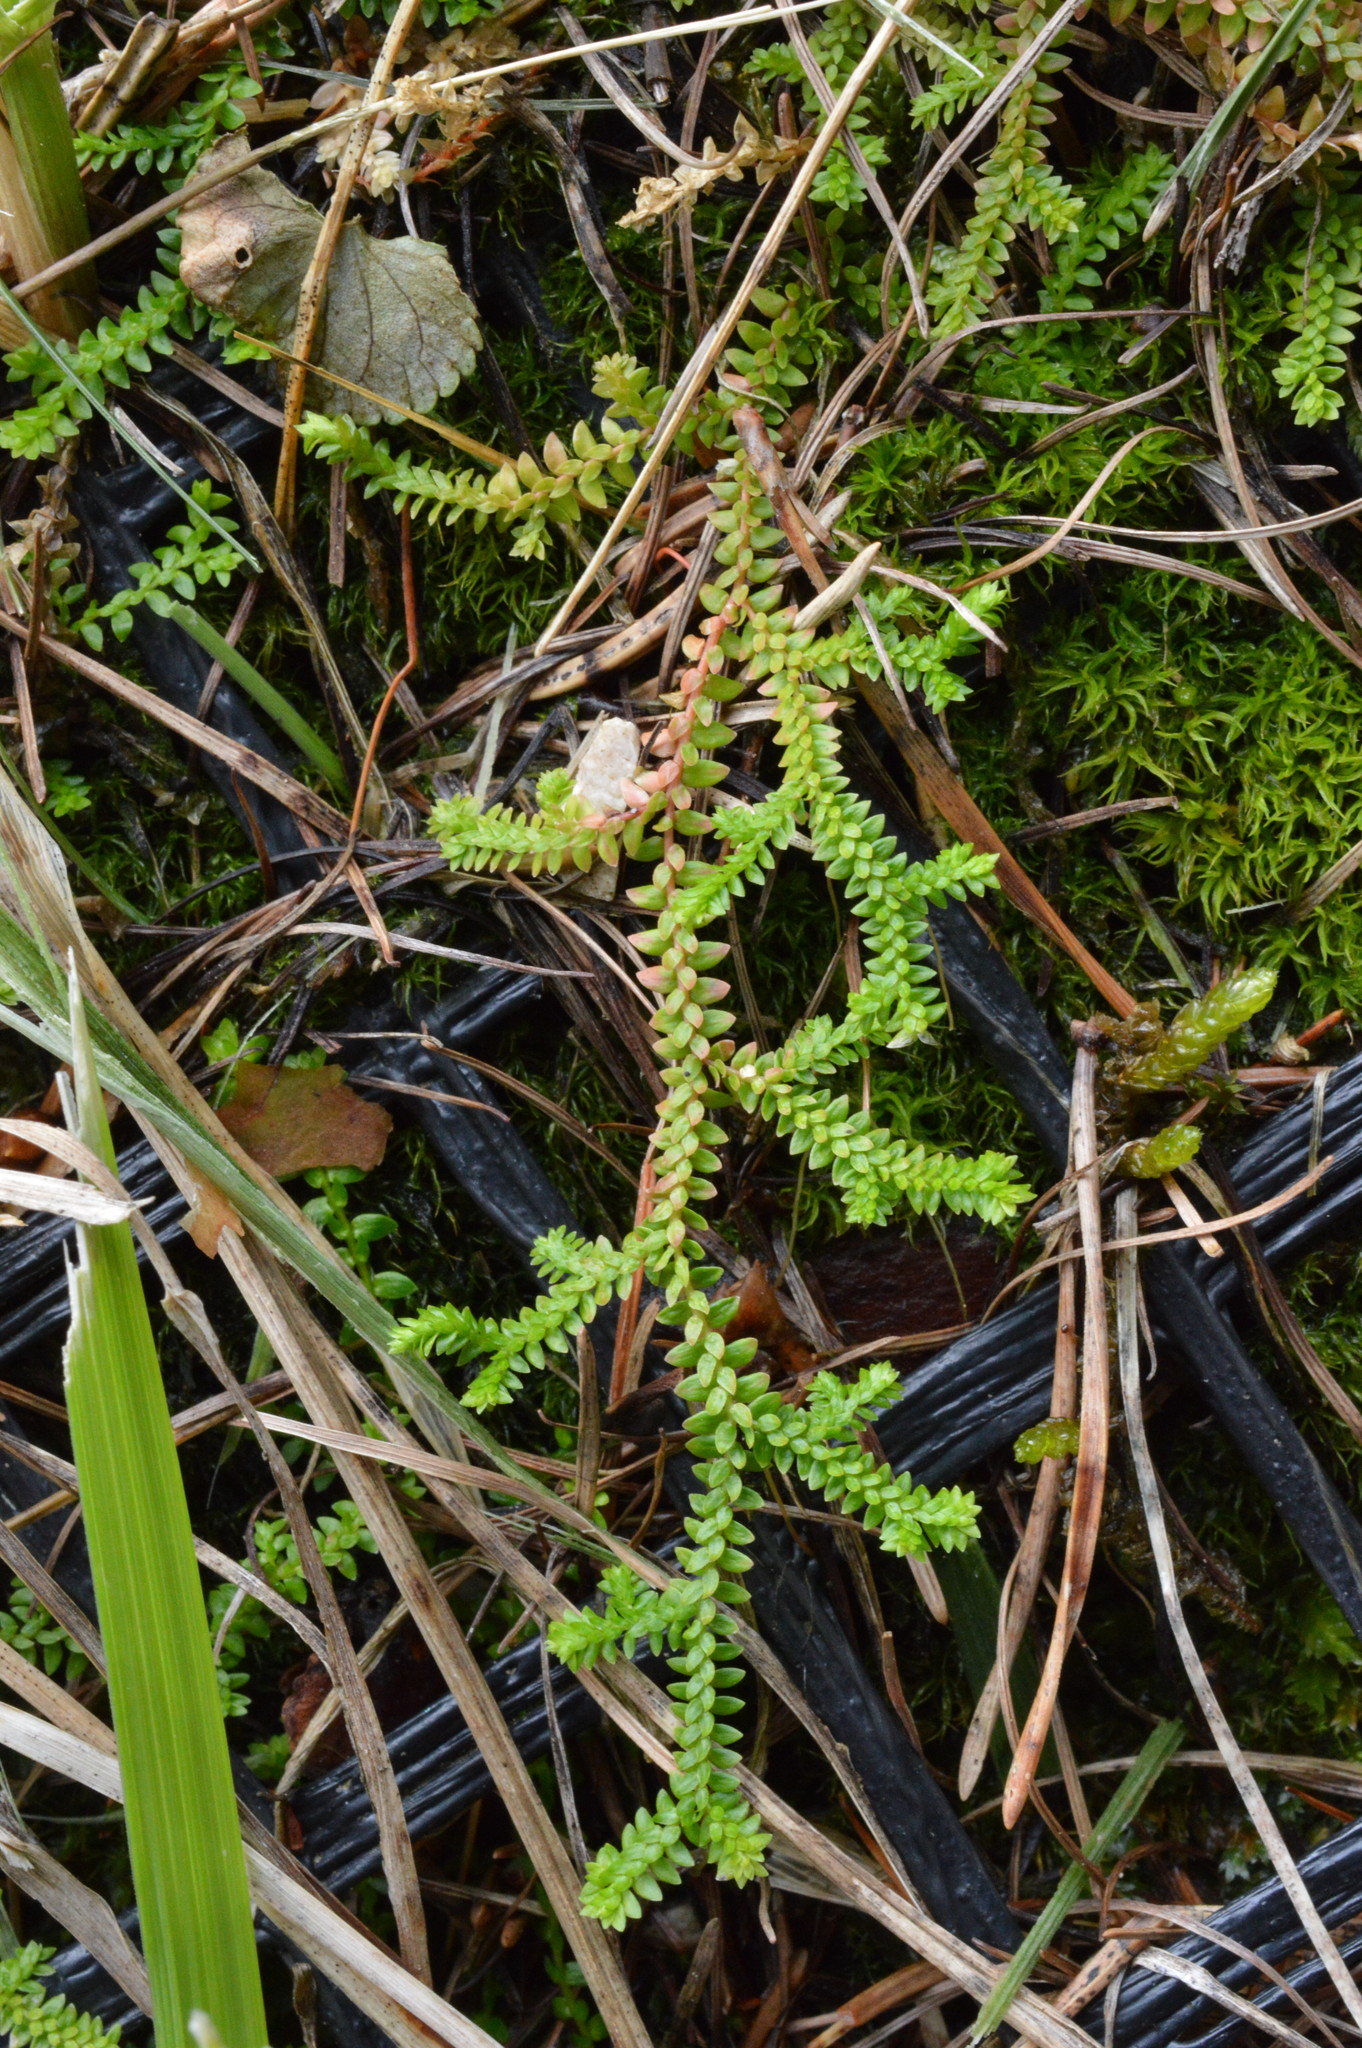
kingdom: Plantae
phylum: Tracheophyta
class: Lycopodiopsida
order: Selaginellales
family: Selaginellaceae
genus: Selaginella
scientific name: Selaginella helvetica
